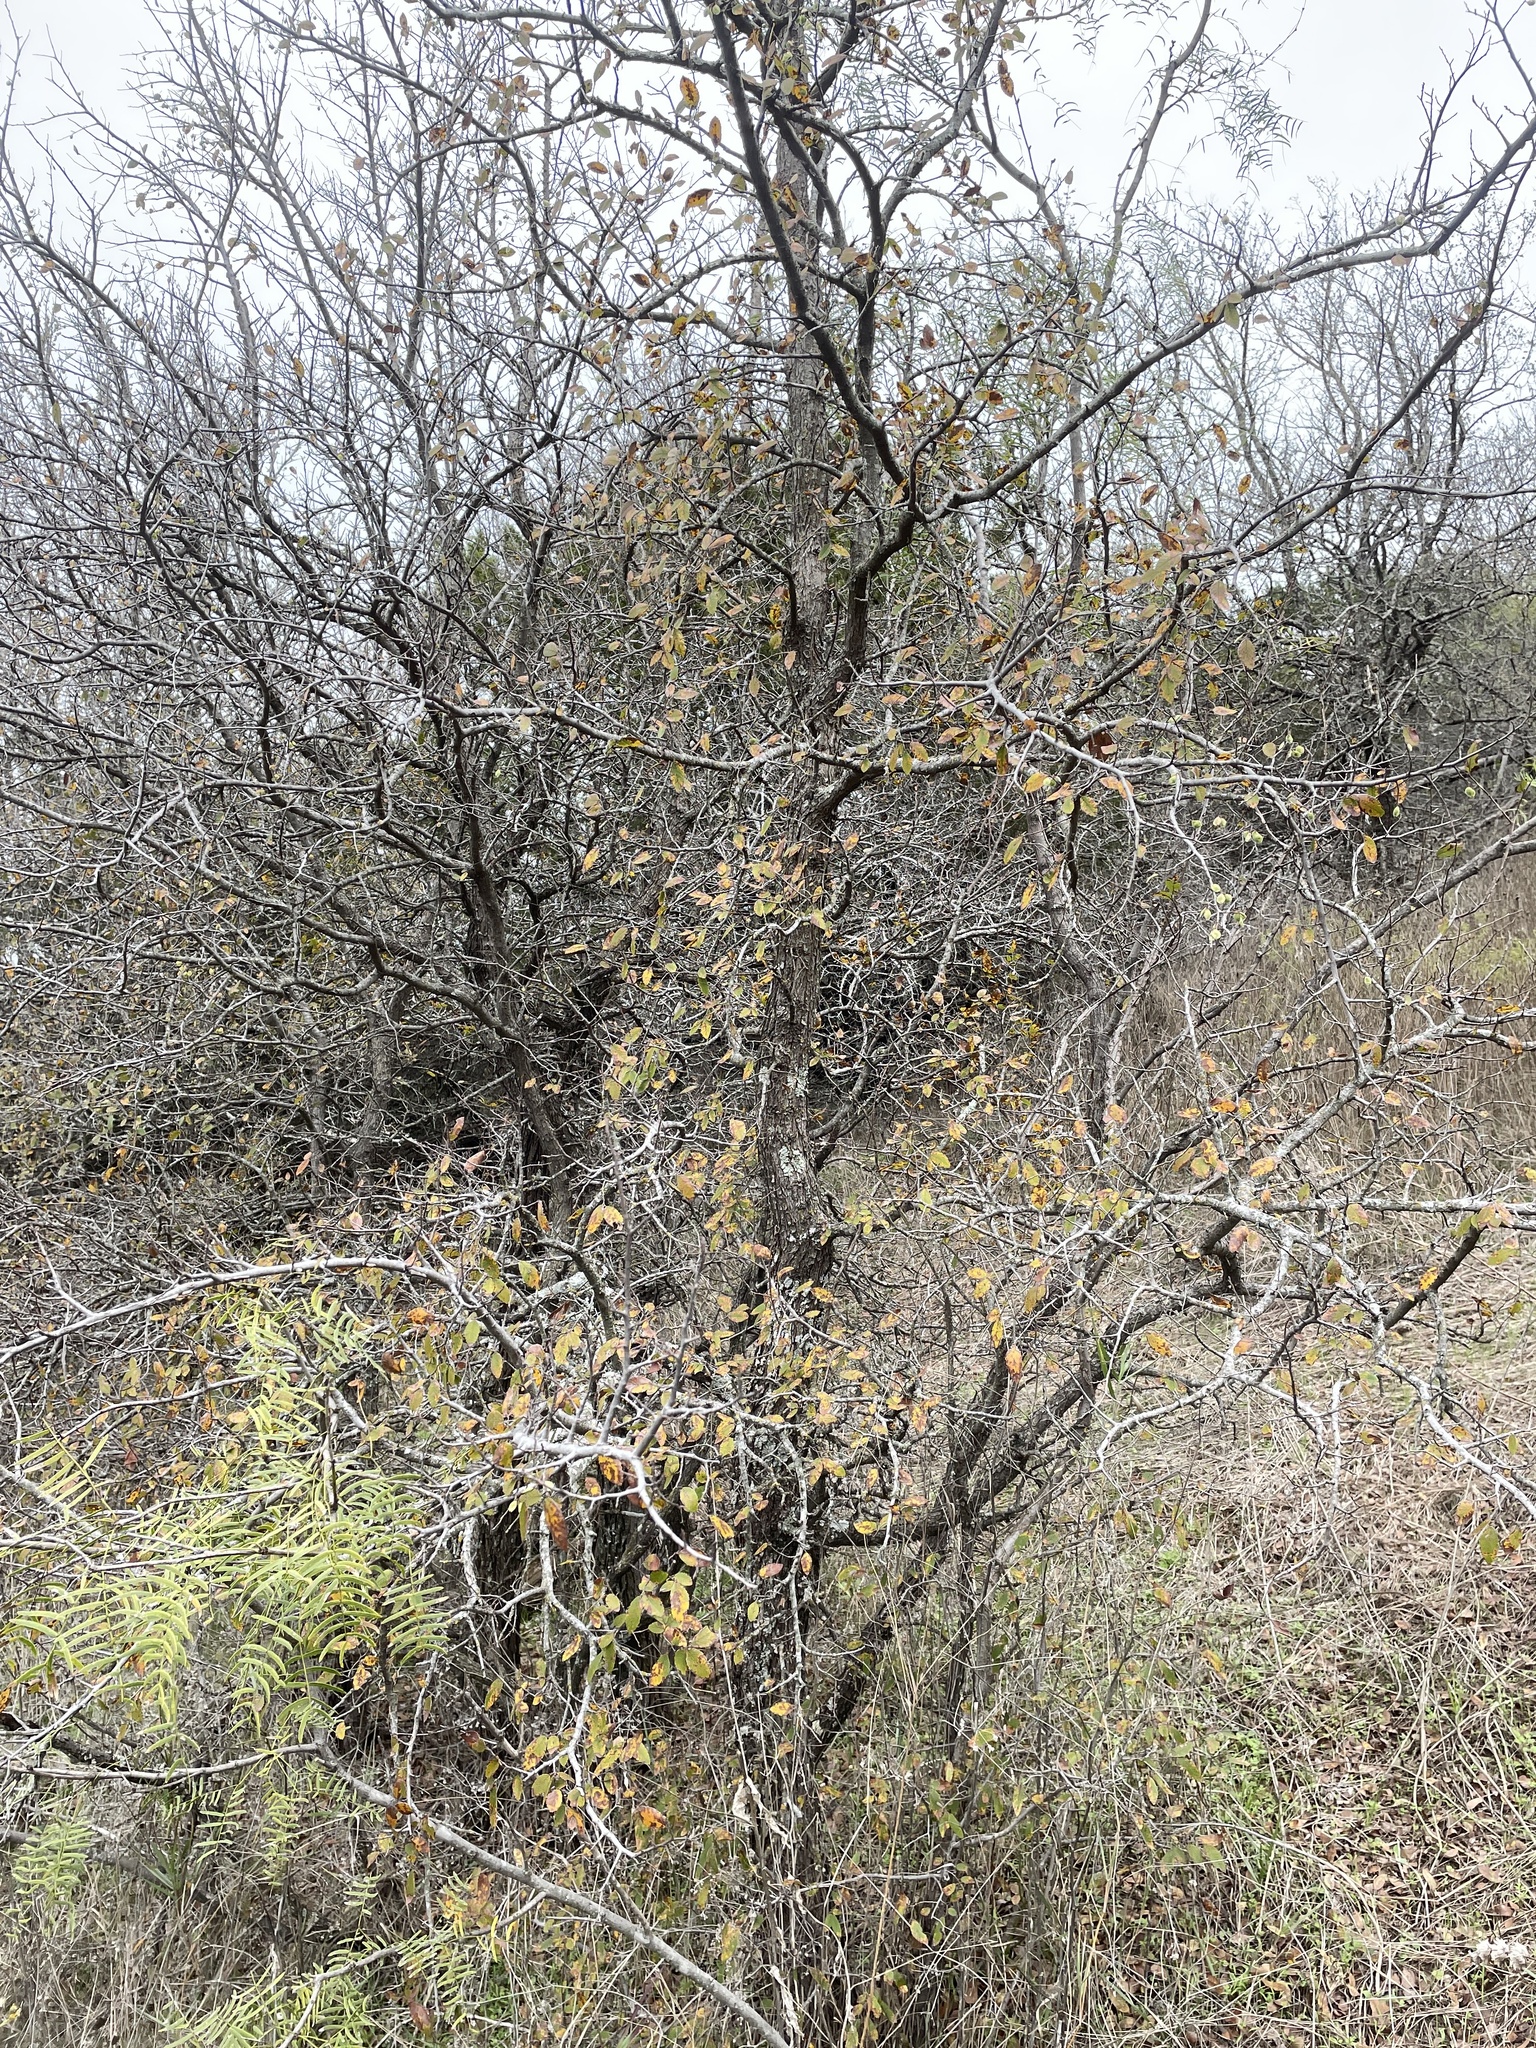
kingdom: Plantae
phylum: Tracheophyta
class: Magnoliopsida
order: Rosales
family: Ulmaceae
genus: Ulmus
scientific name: Ulmus crassifolia
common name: Basket elm
